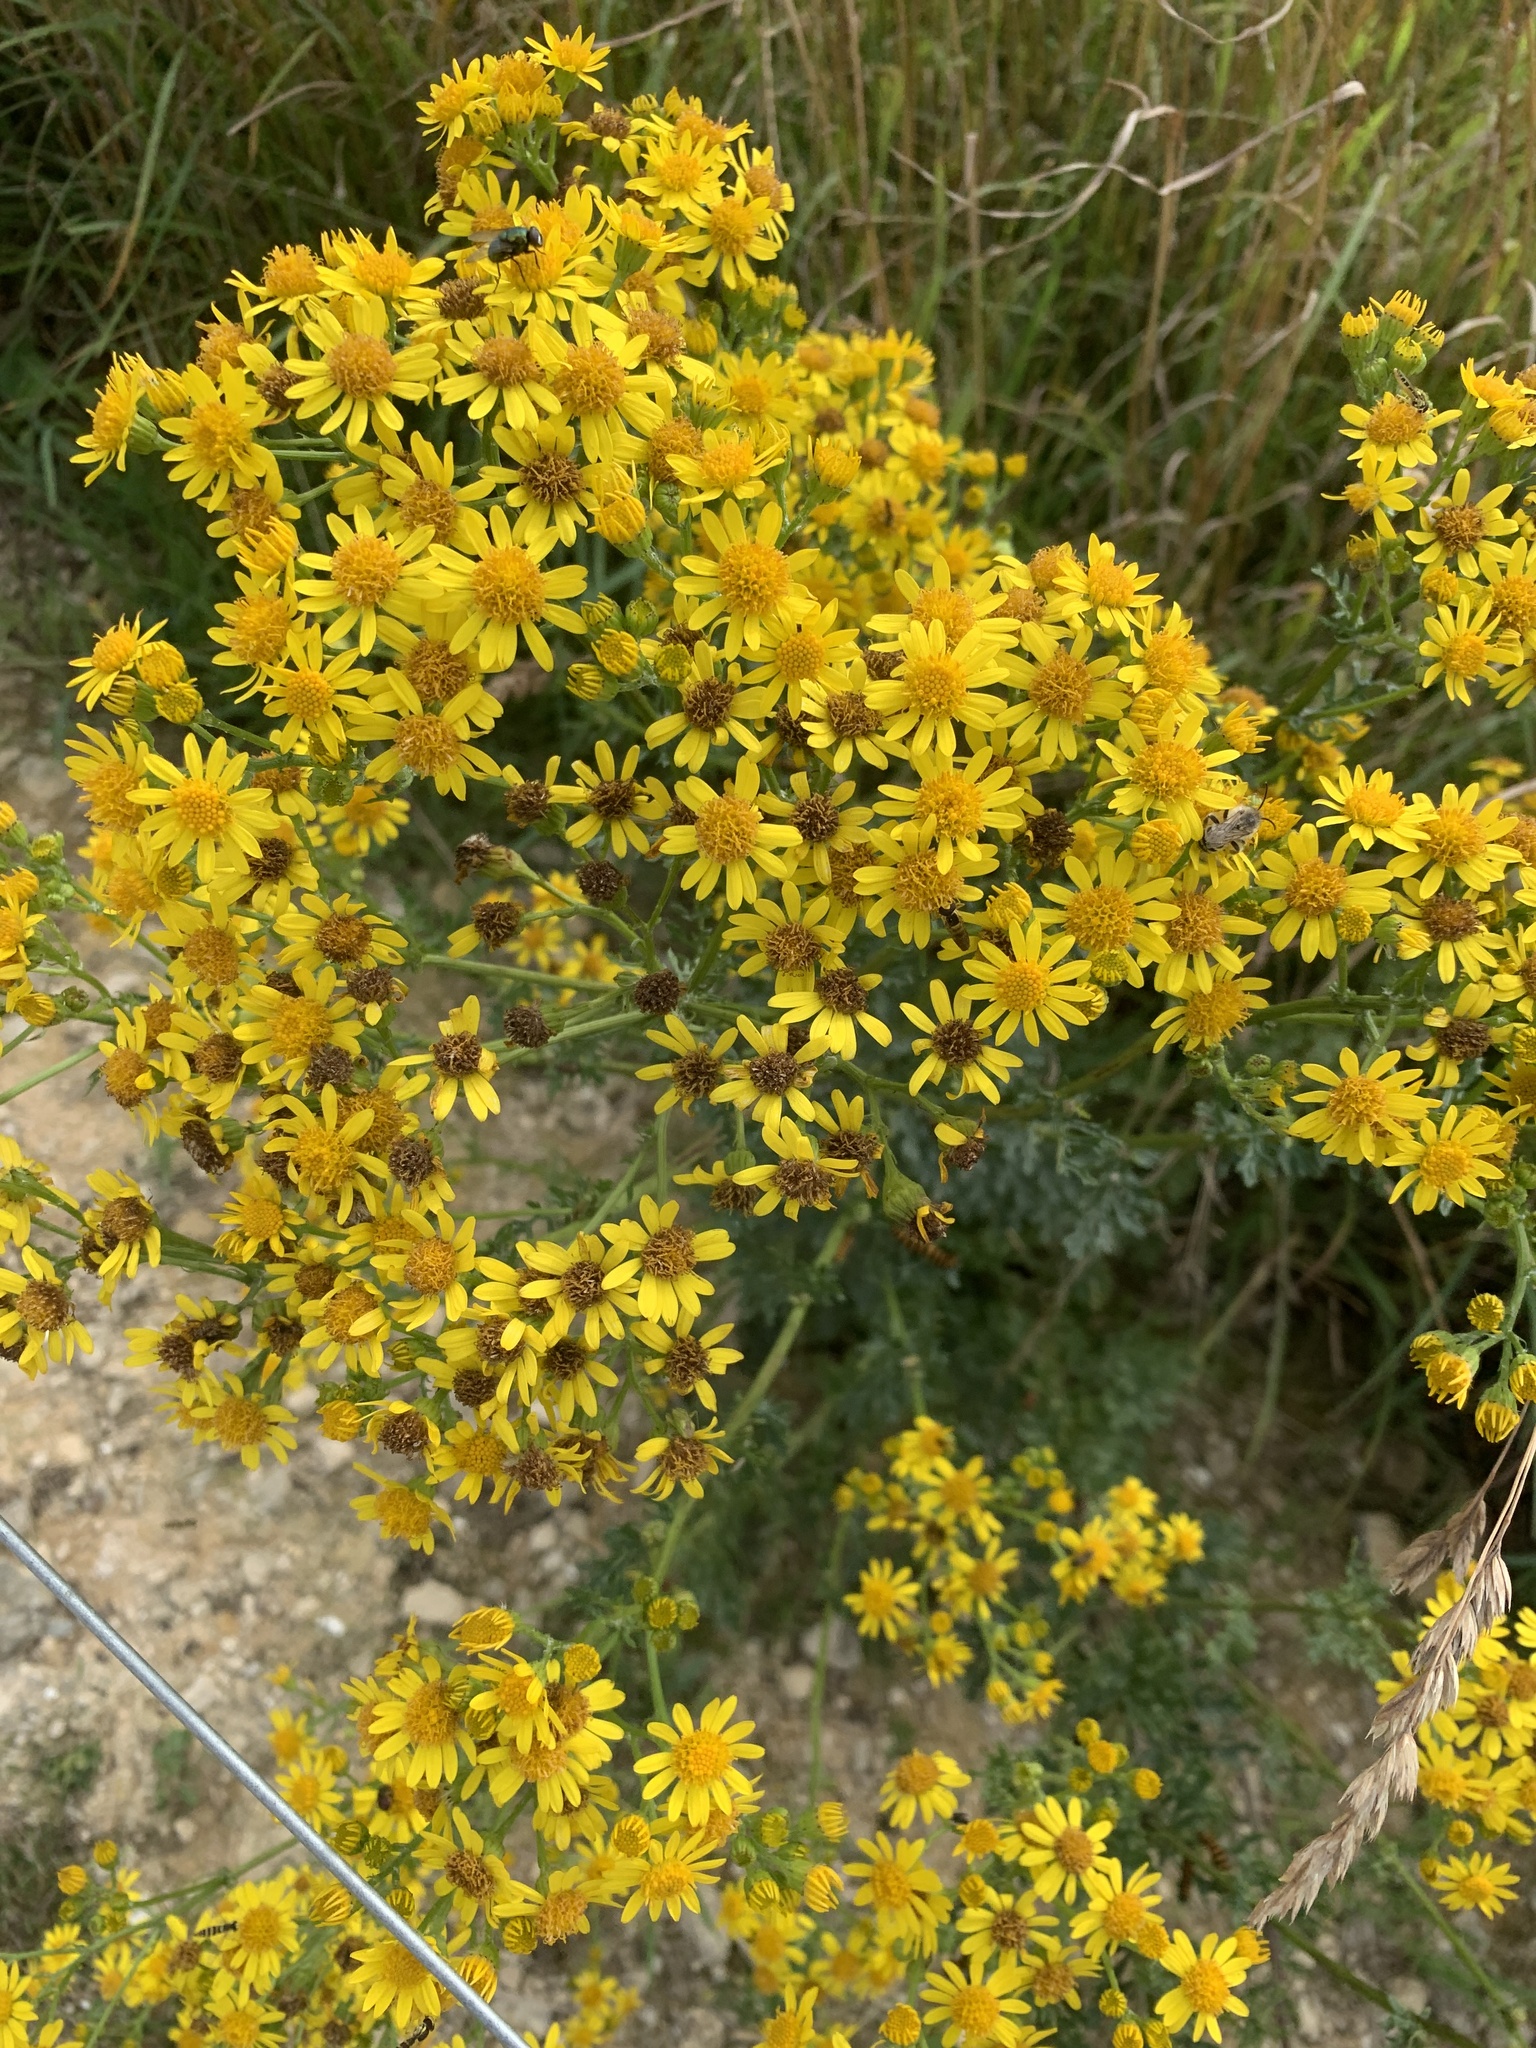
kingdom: Plantae
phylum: Tracheophyta
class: Magnoliopsida
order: Asterales
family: Asteraceae
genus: Jacobaea
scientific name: Jacobaea vulgaris
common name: Stinking willie
